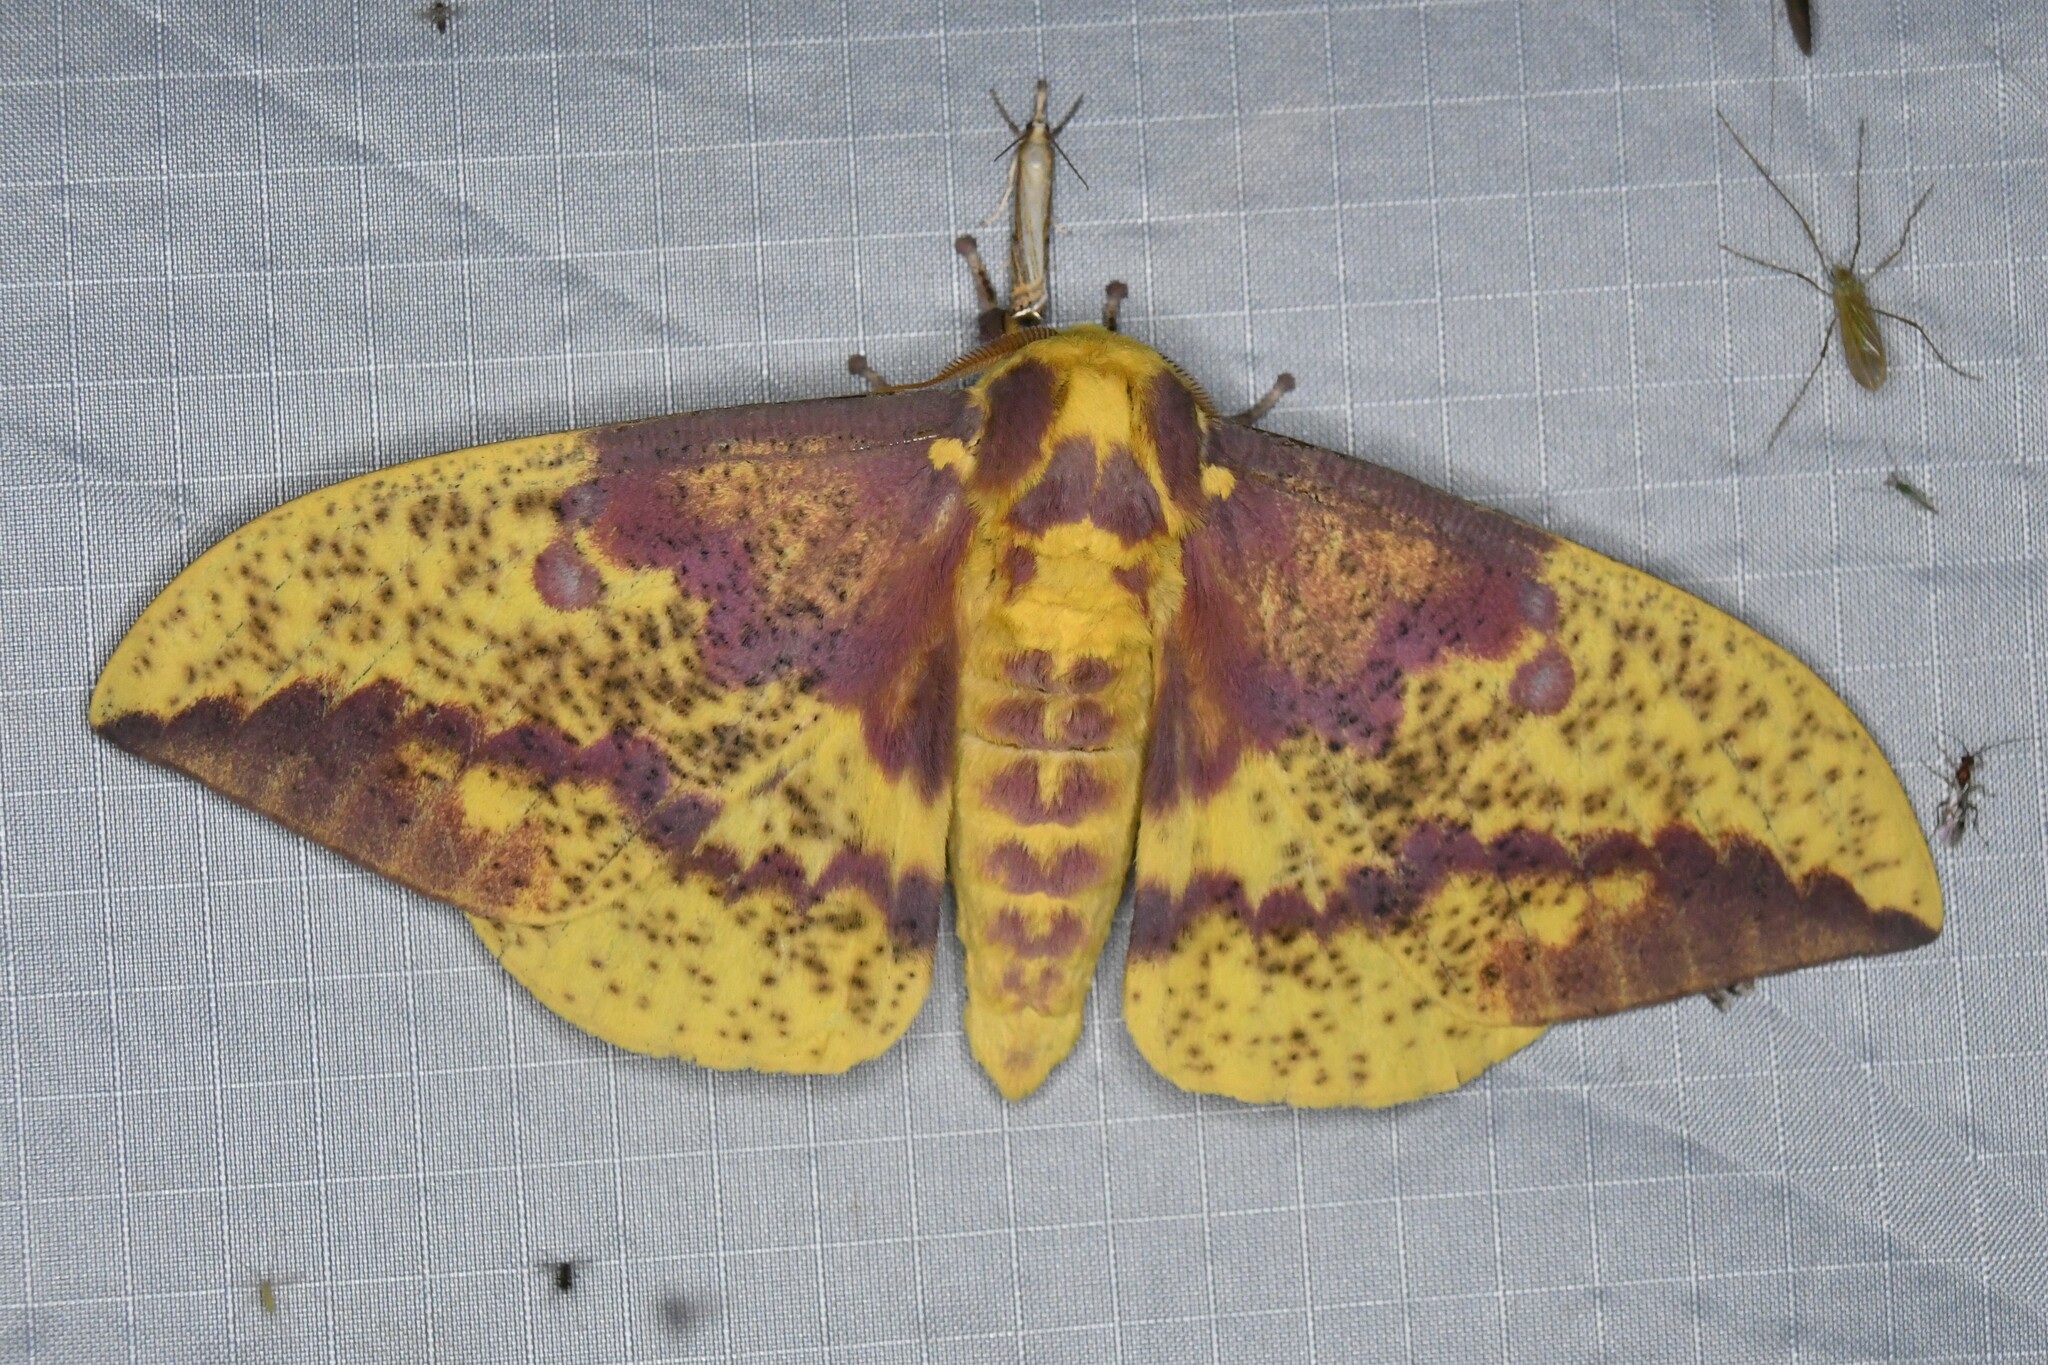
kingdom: Animalia
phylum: Arthropoda
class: Insecta
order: Lepidoptera
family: Saturniidae
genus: Eacles
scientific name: Eacles
